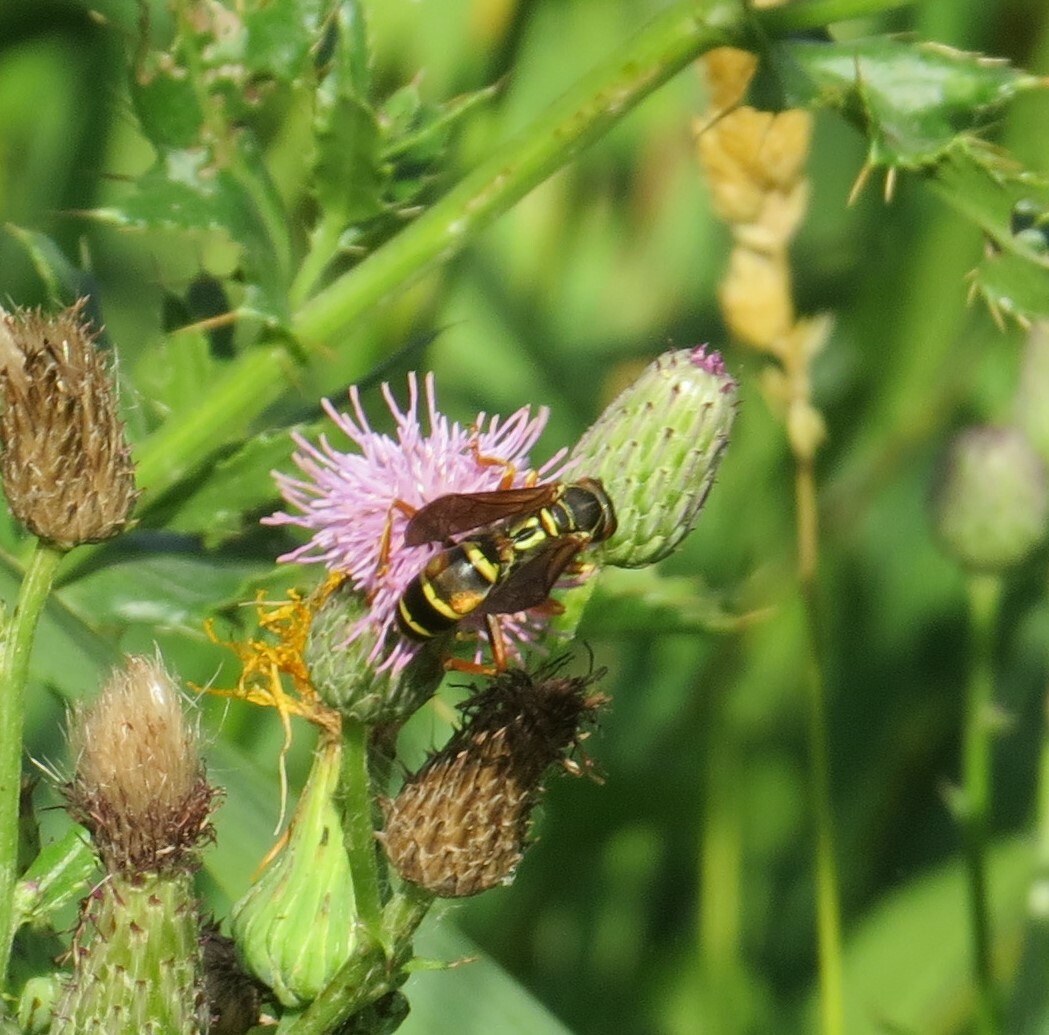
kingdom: Animalia
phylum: Arthropoda
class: Insecta
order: Hymenoptera
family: Eumenidae
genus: Polistes
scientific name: Polistes fuscatus
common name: Dark paper wasp
